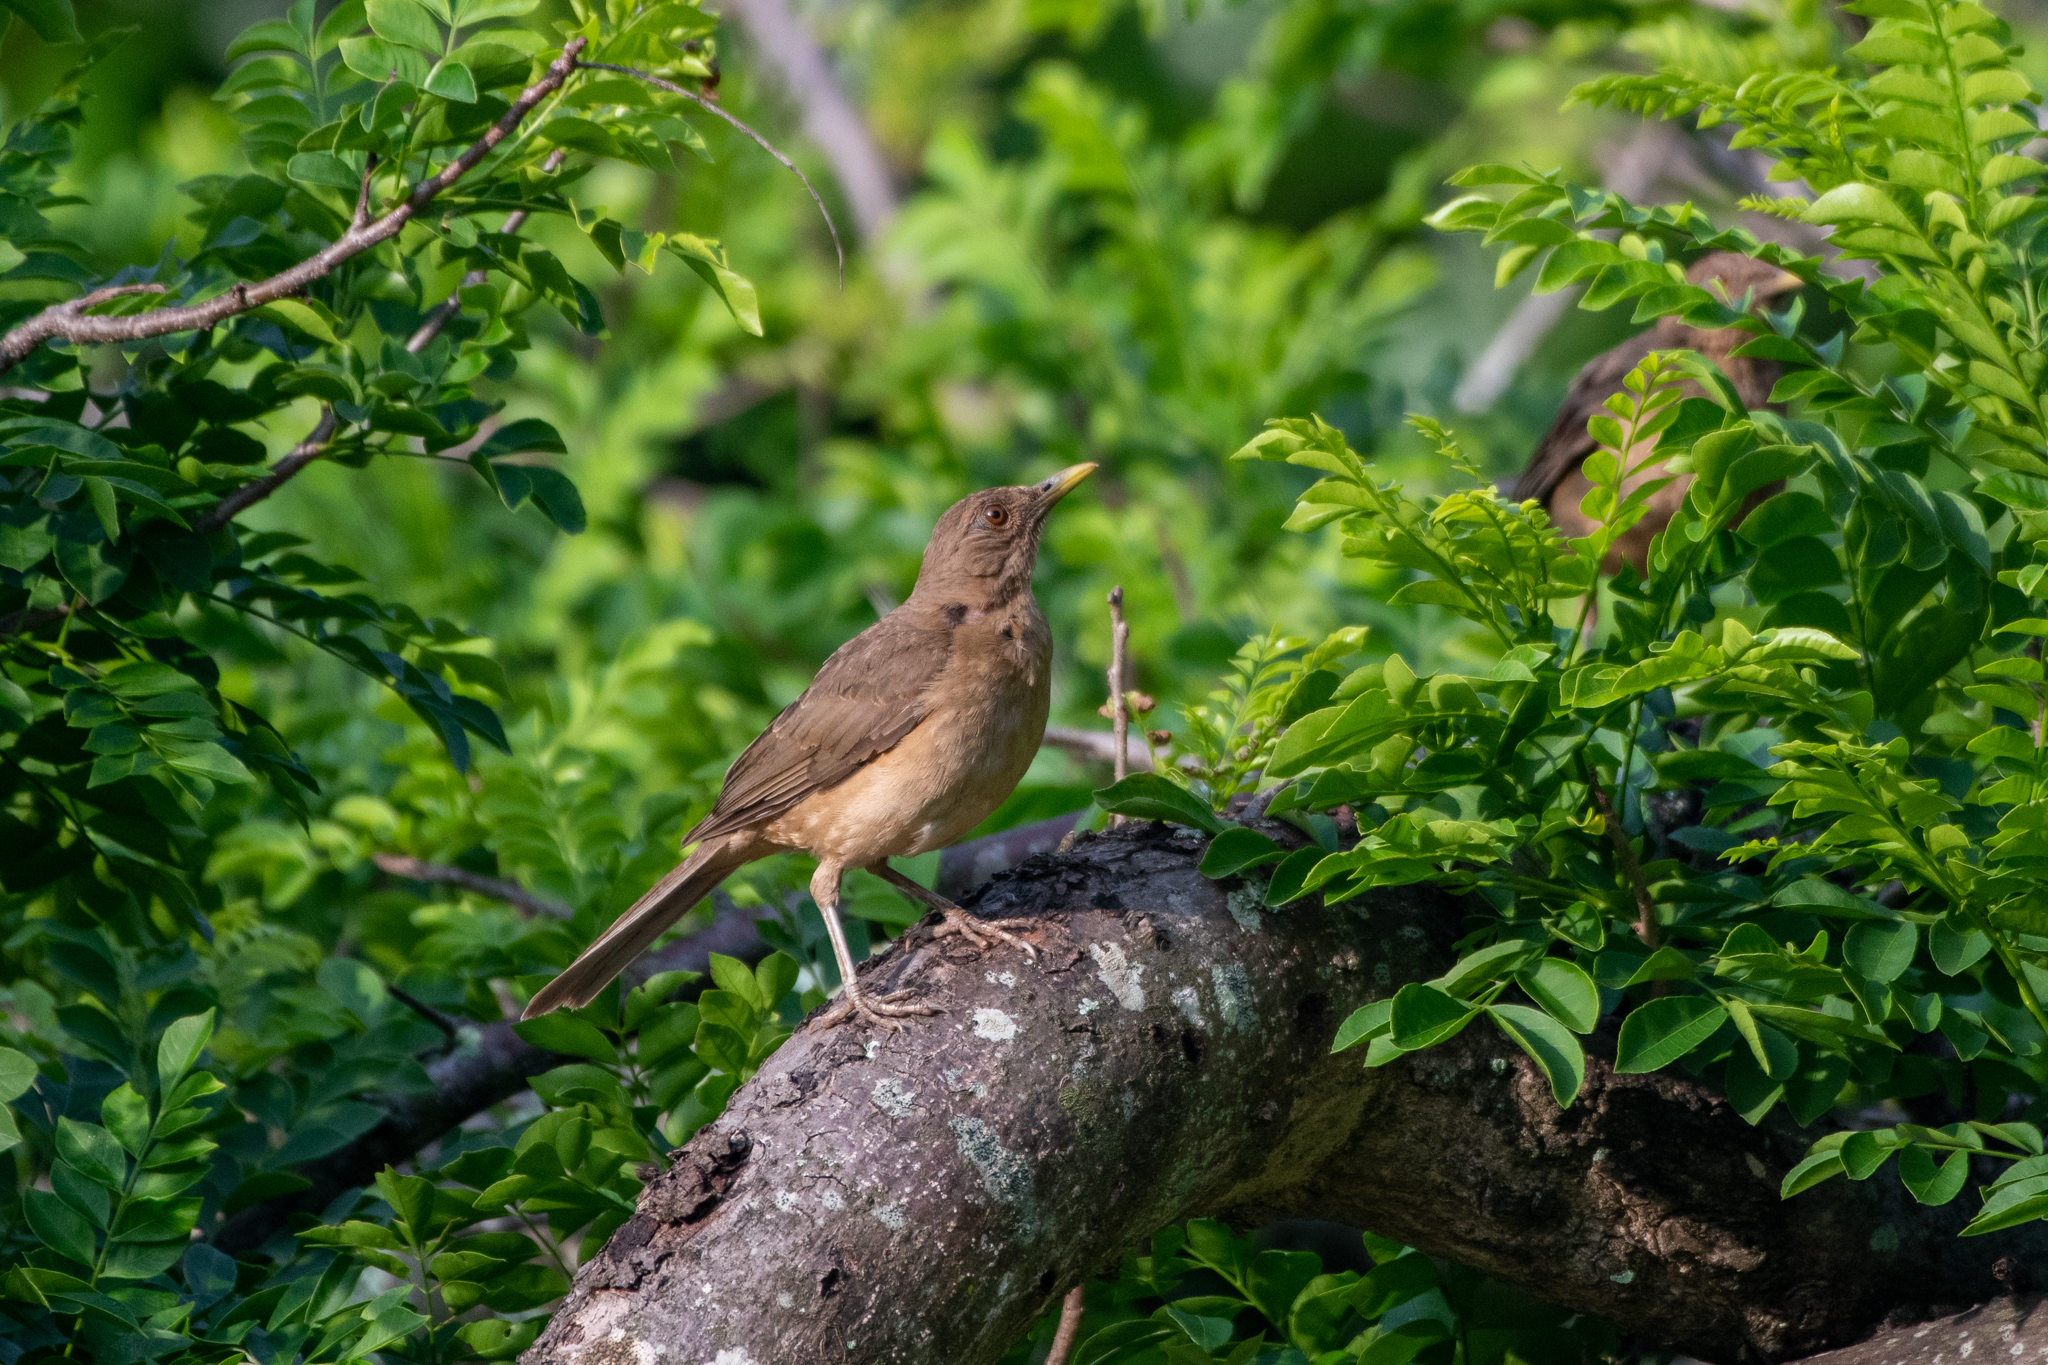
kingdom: Animalia
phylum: Chordata
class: Aves
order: Passeriformes
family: Turdidae
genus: Turdus
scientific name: Turdus grayi
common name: Clay-colored thrush
